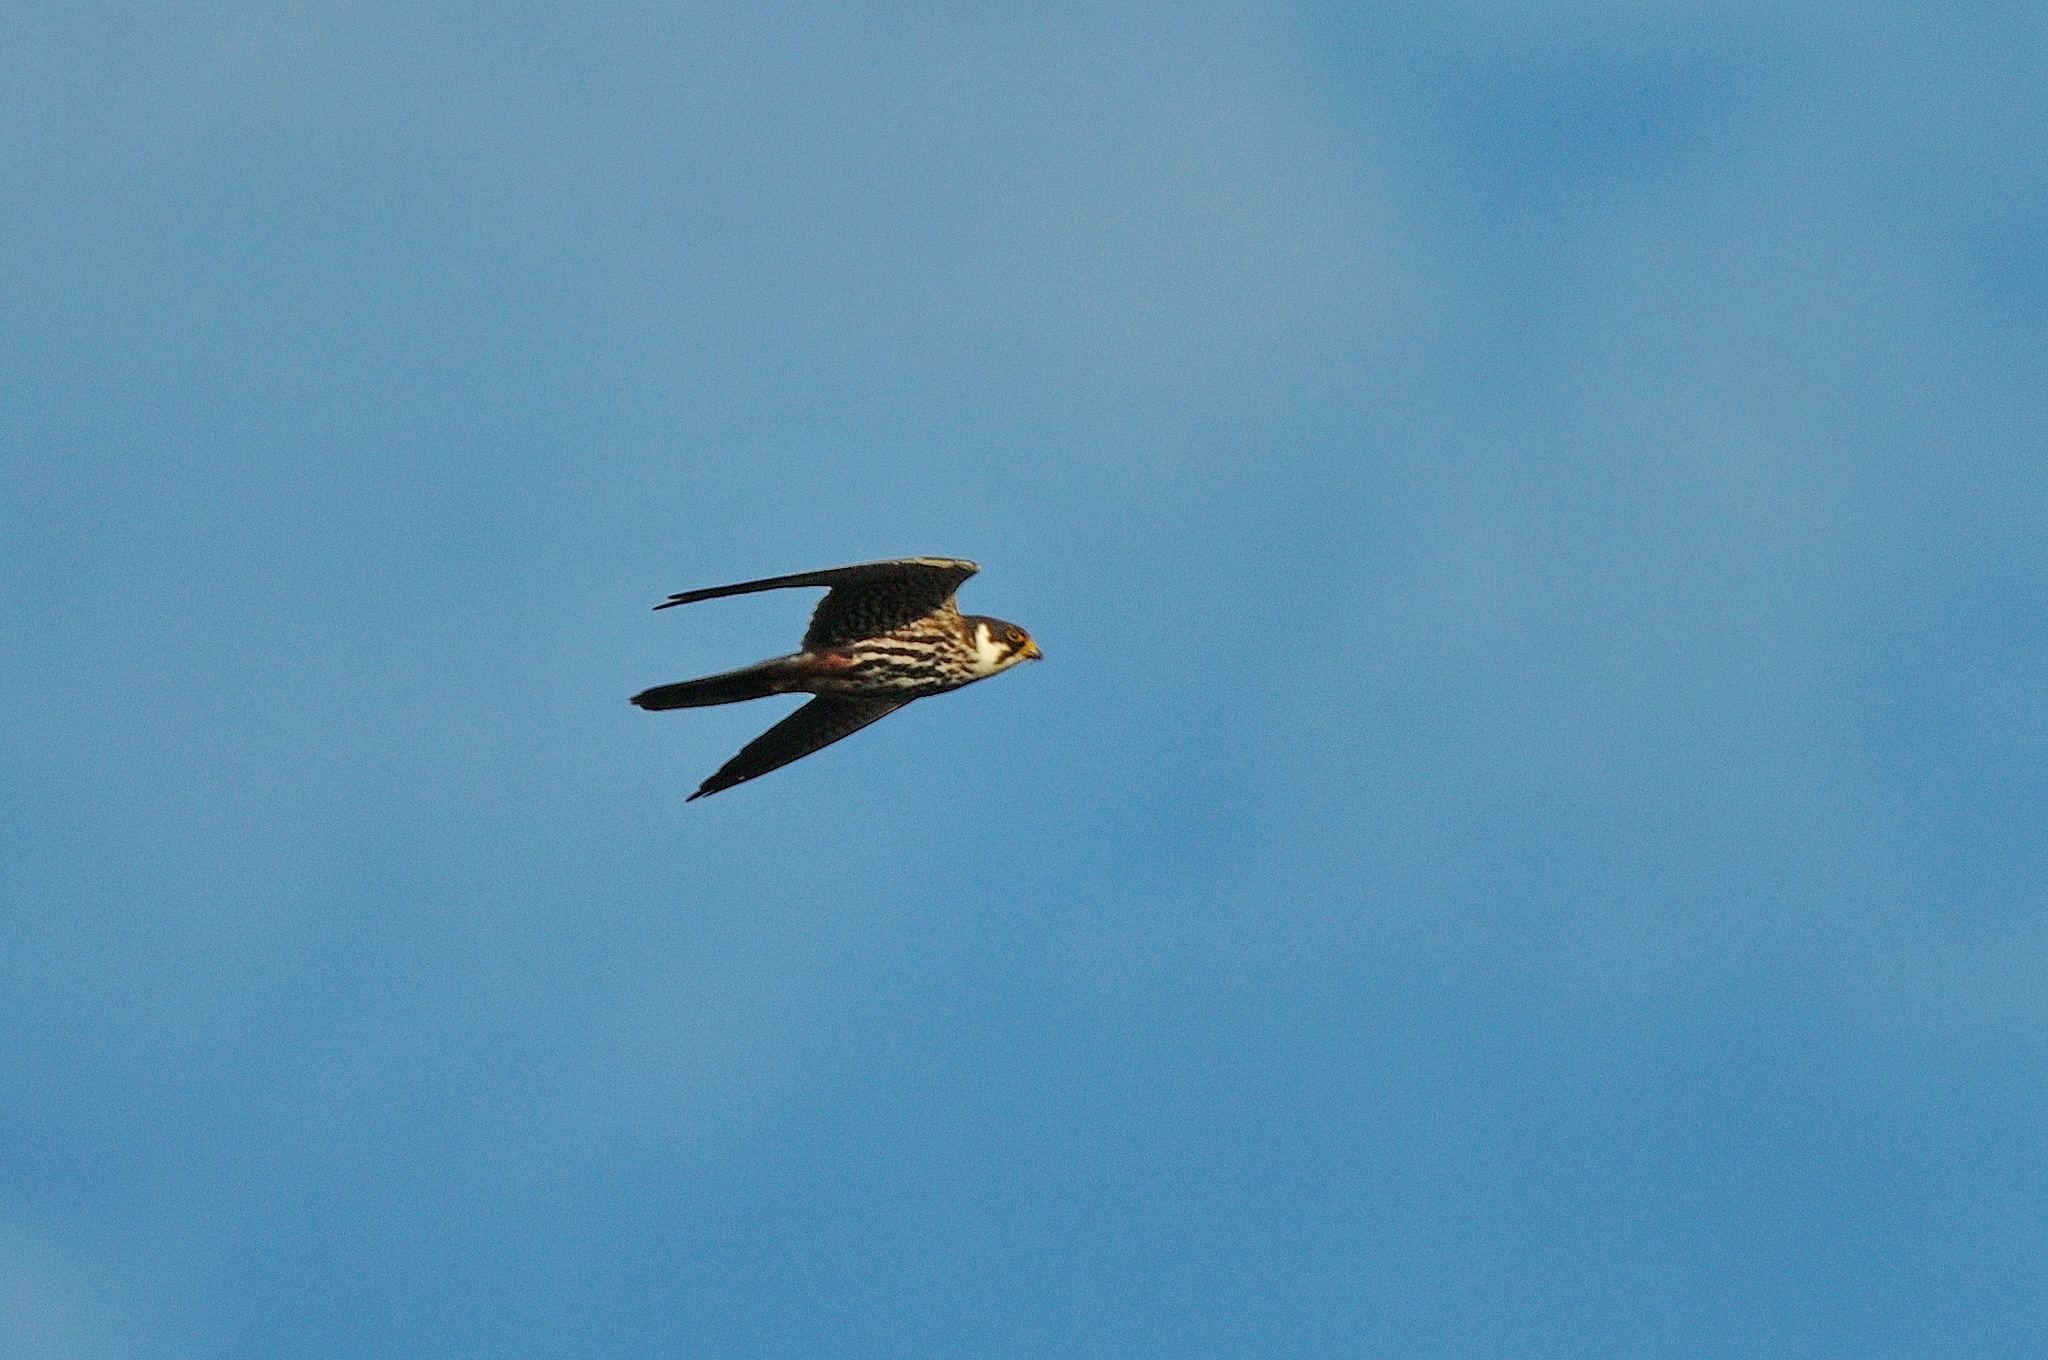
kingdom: Animalia
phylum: Chordata
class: Aves
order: Falconiformes
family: Falconidae
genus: Falco
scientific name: Falco subbuteo
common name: Eurasian hobby
